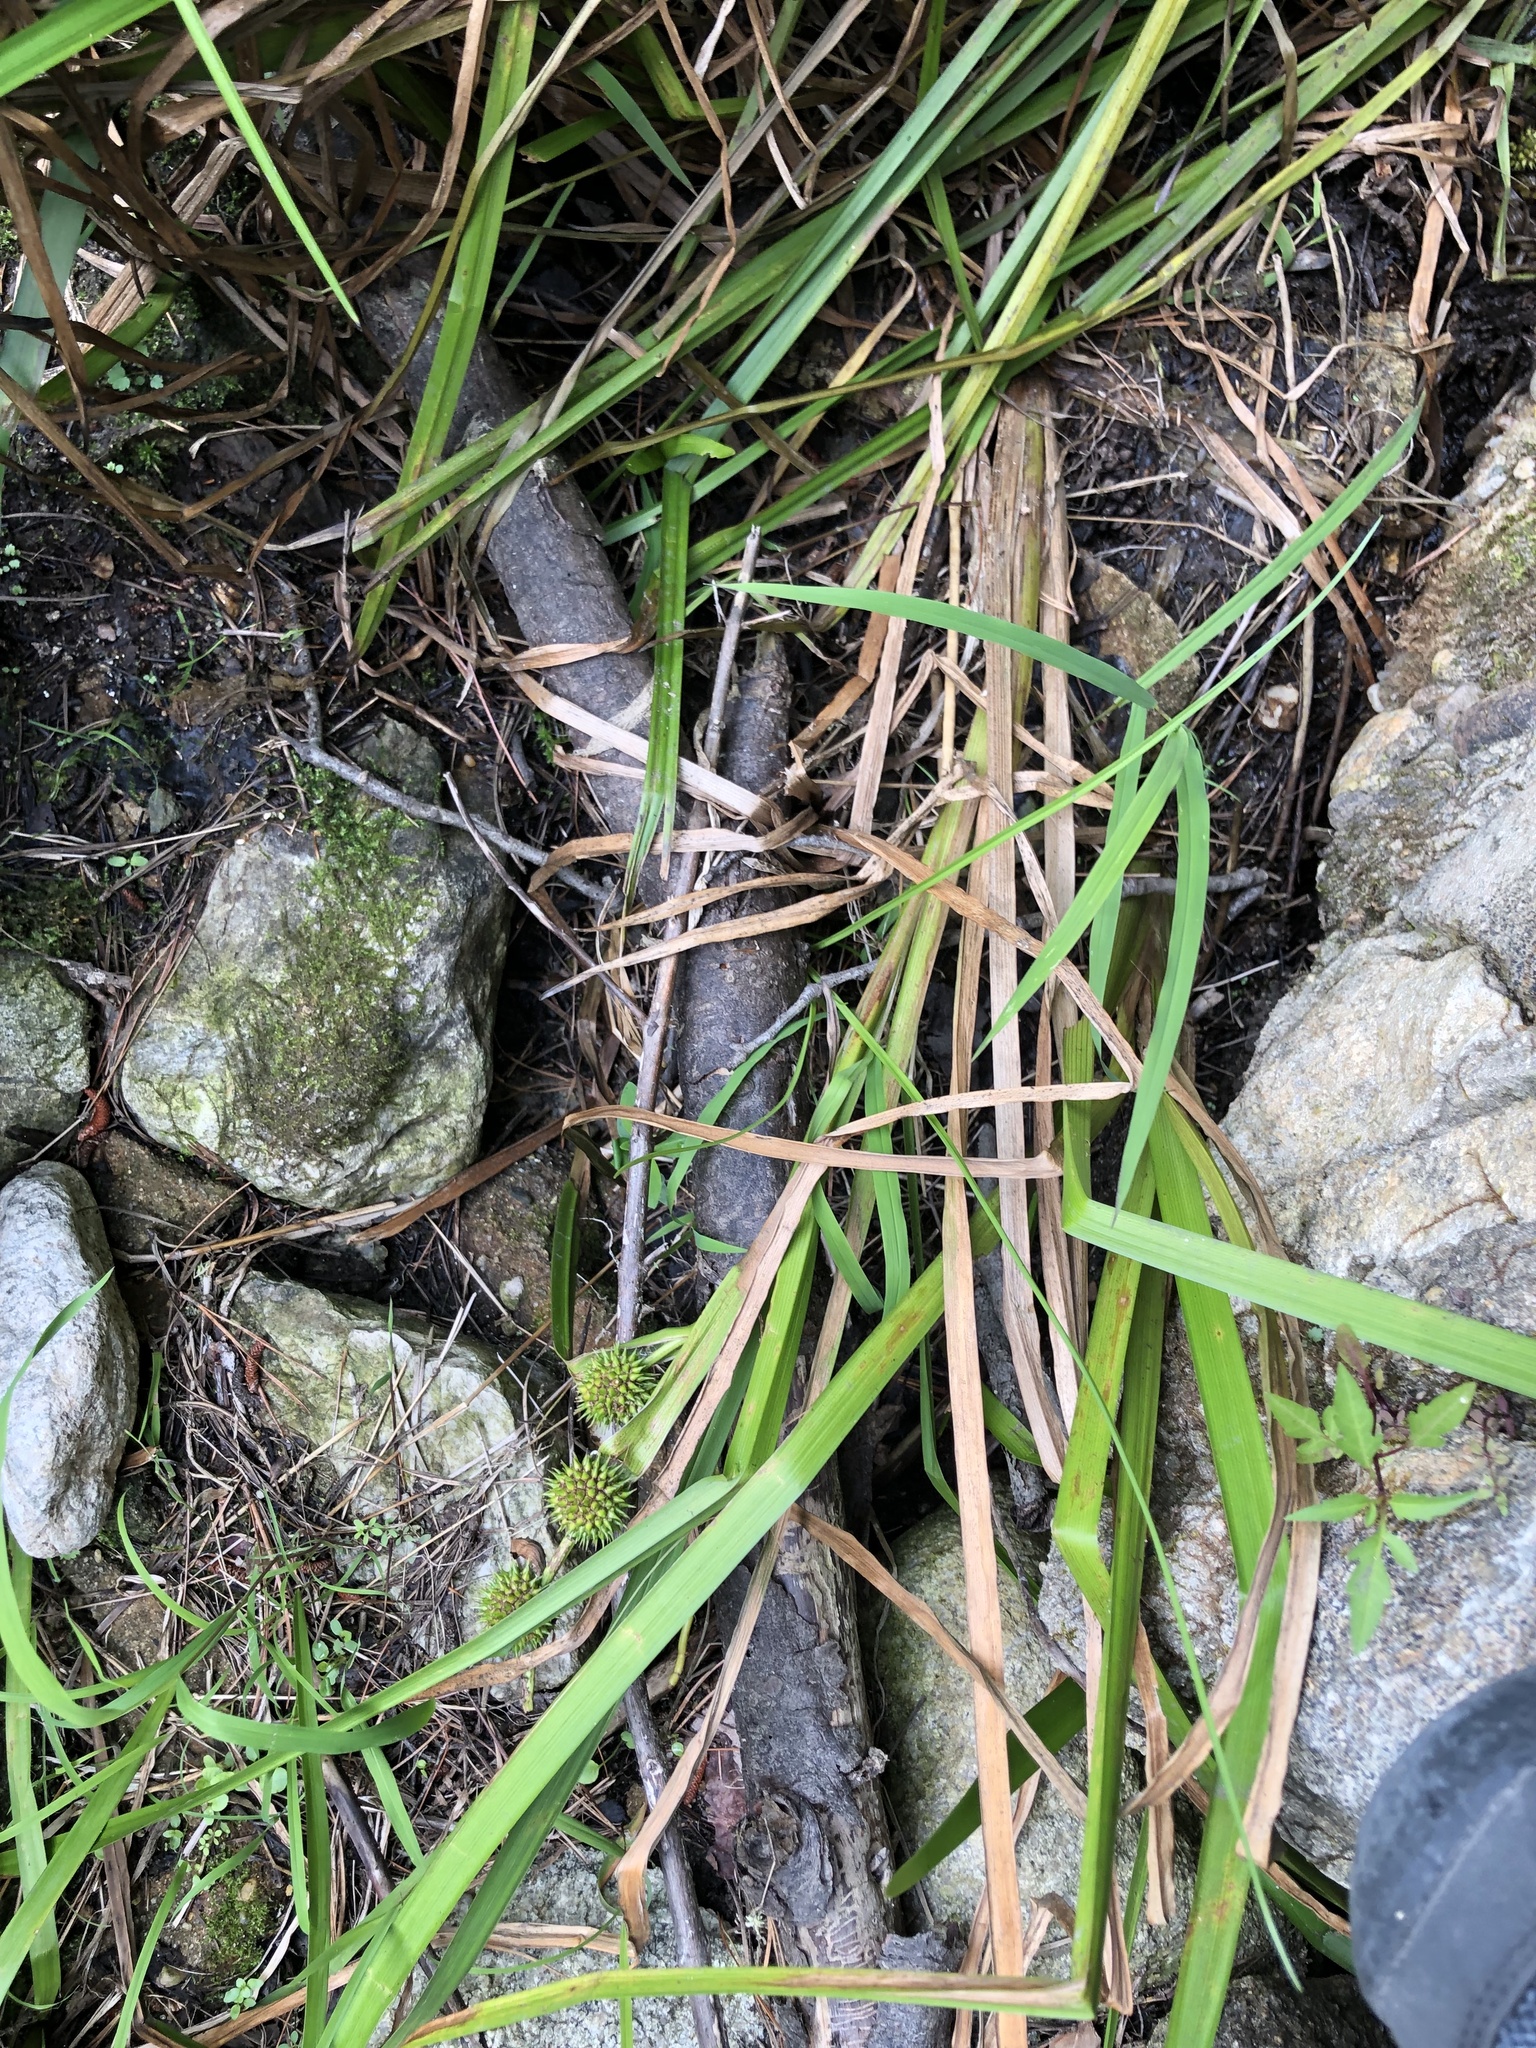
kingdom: Plantae
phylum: Tracheophyta
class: Liliopsida
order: Poales
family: Typhaceae
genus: Sparganium
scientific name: Sparganium americanum
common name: American burreed
